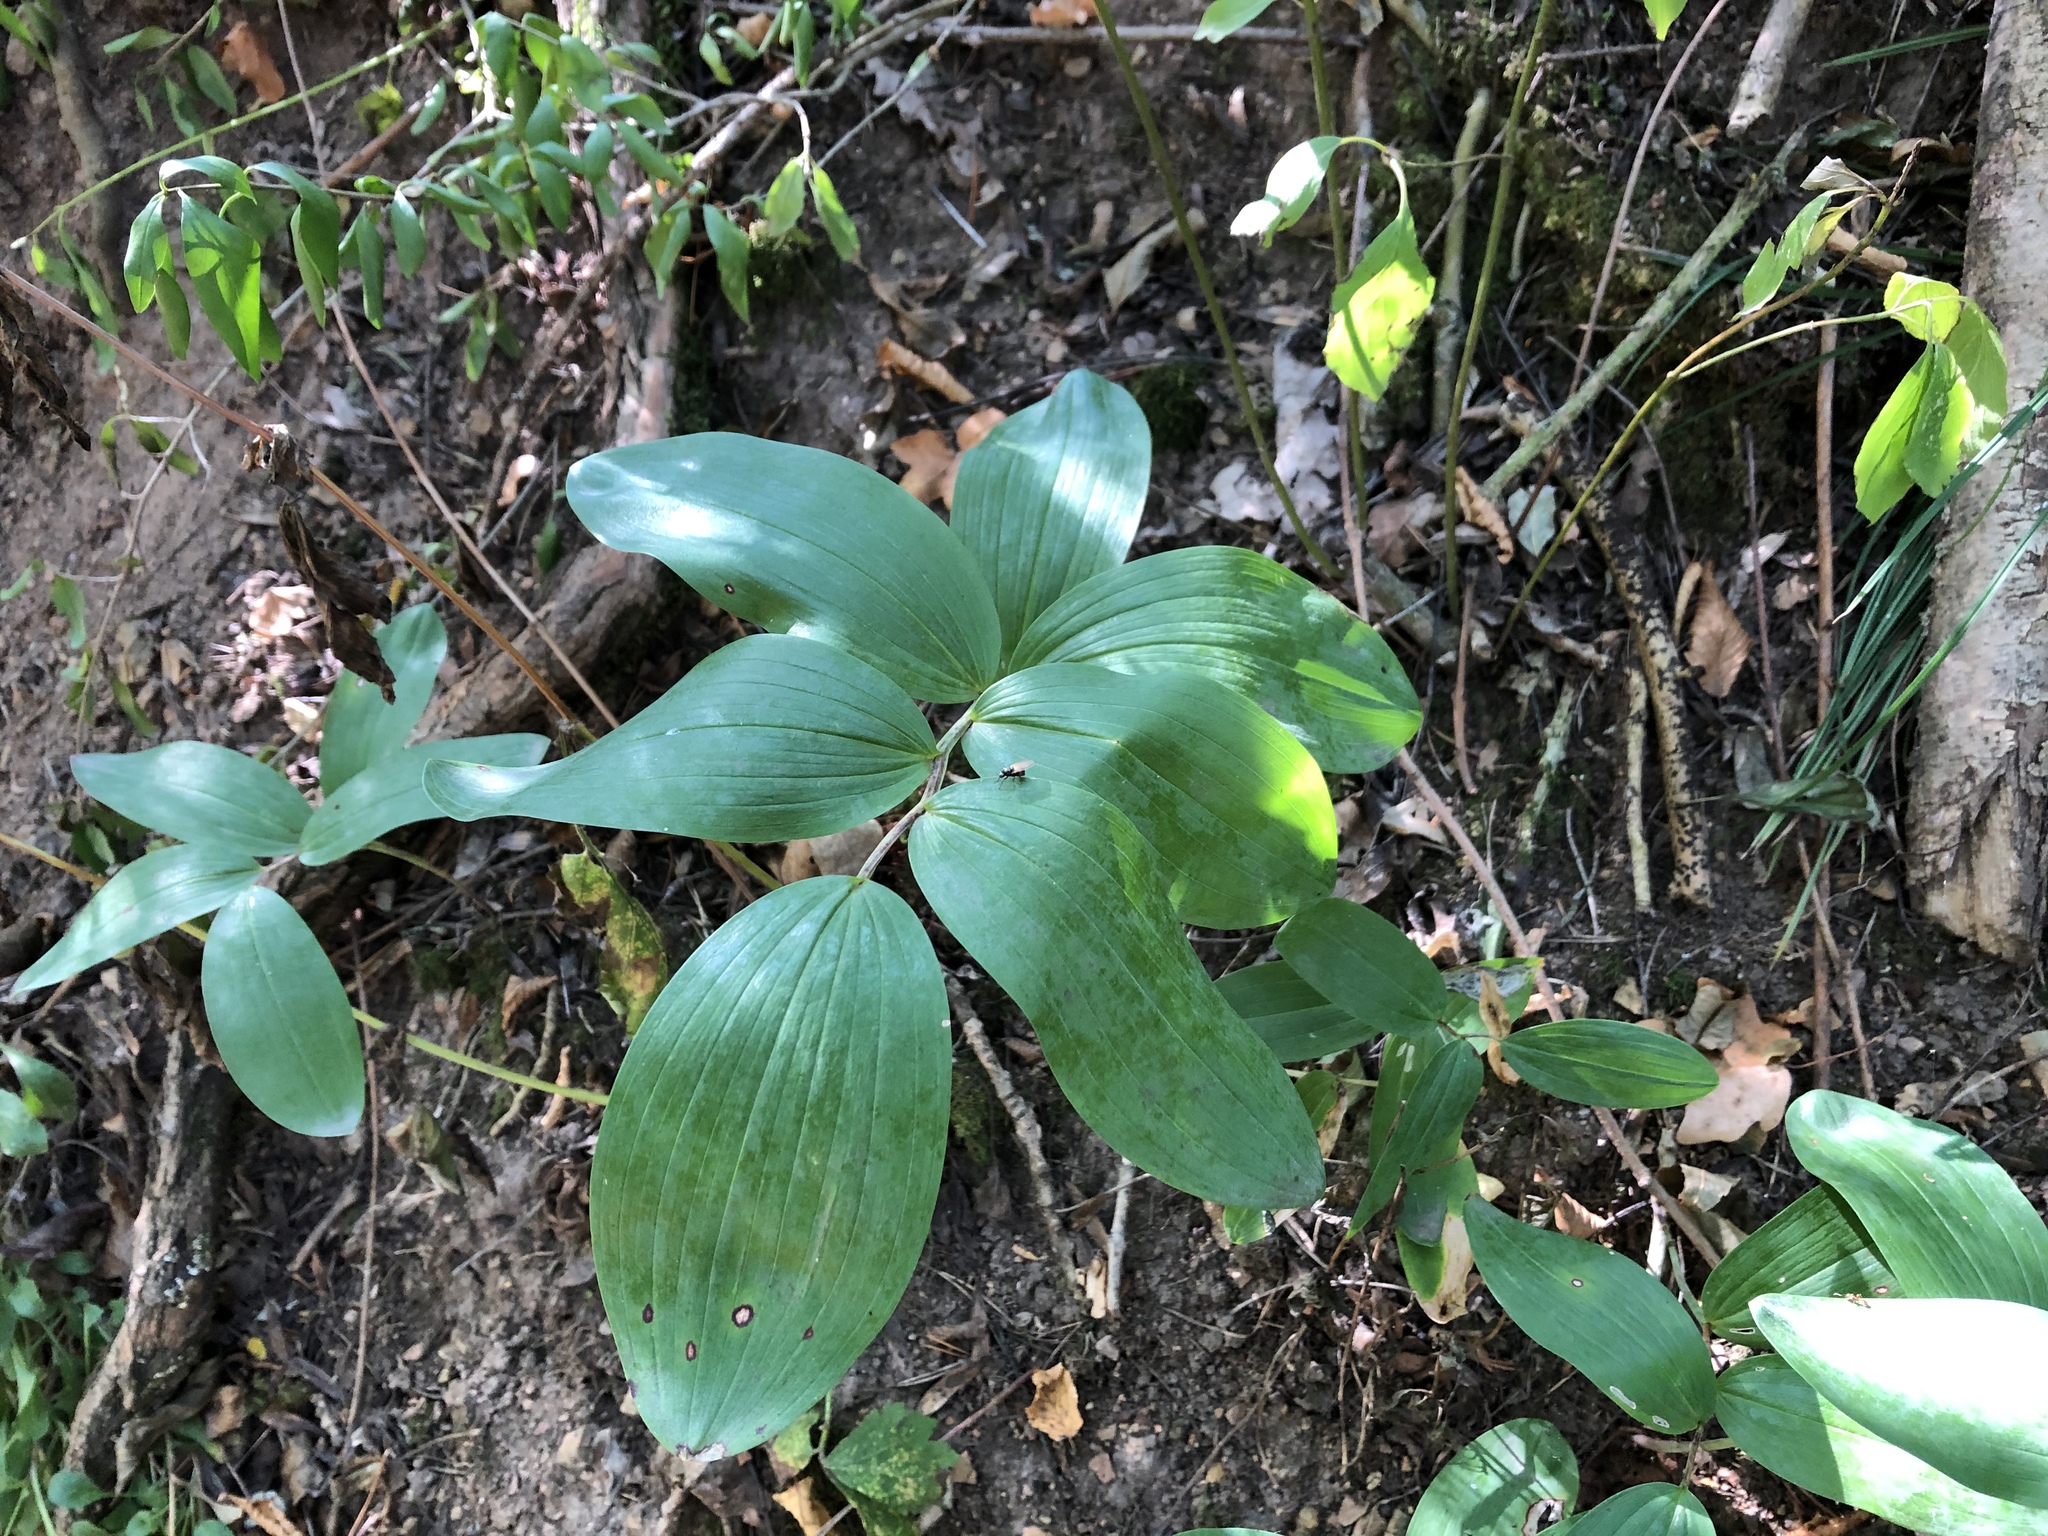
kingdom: Plantae
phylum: Tracheophyta
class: Liliopsida
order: Asparagales
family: Asparagaceae
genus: Polygonatum
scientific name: Polygonatum odoratum
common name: Angular solomon's-seal
